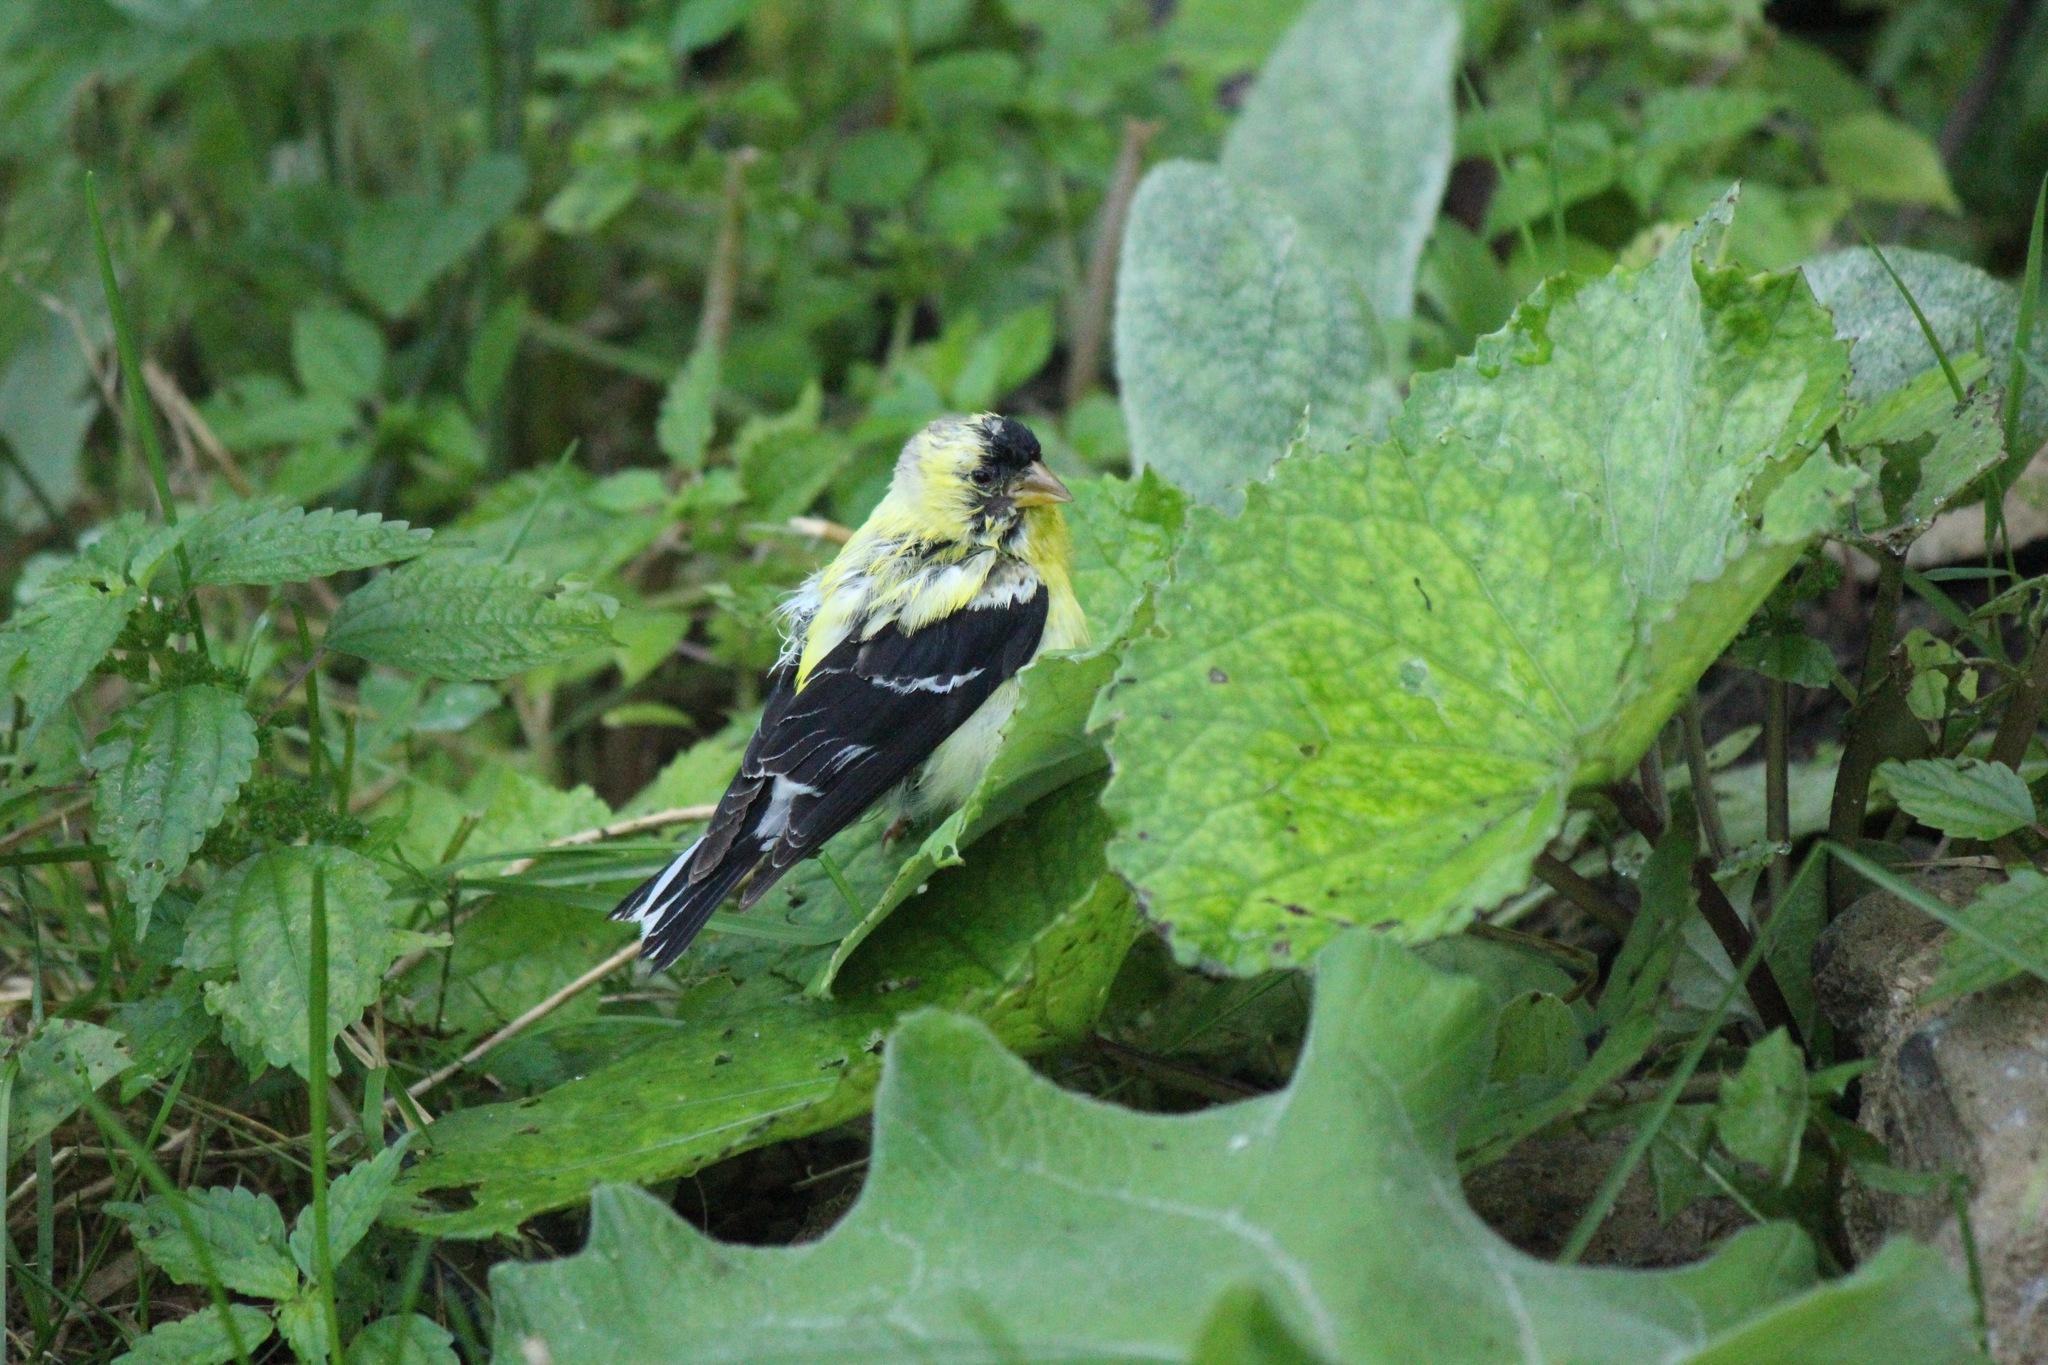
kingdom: Animalia
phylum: Chordata
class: Aves
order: Passeriformes
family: Fringillidae
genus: Spinus
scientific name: Spinus tristis
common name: American goldfinch
